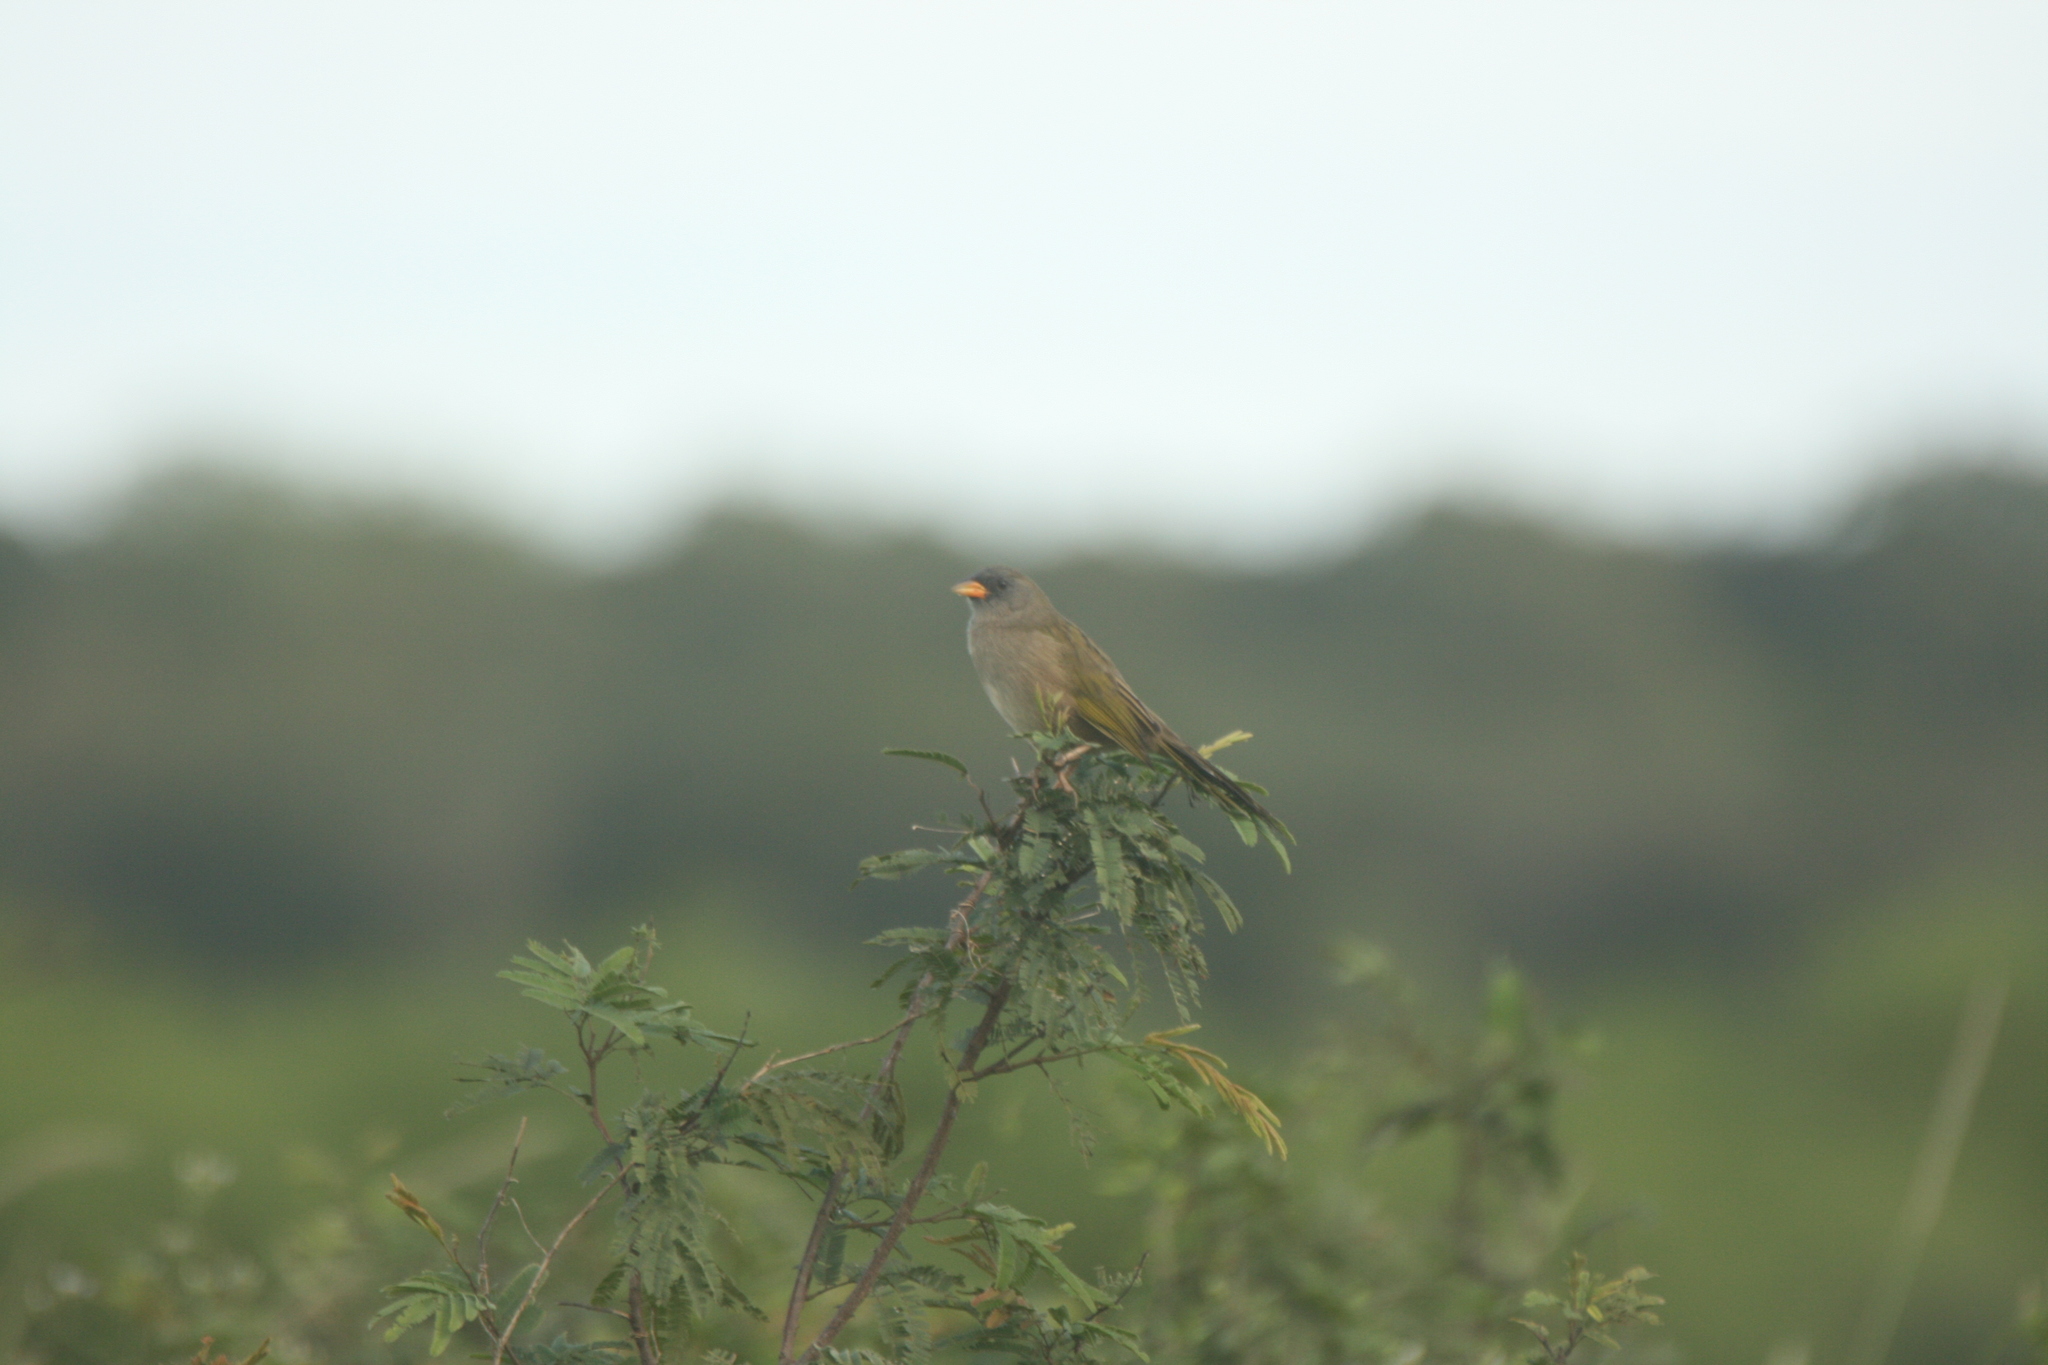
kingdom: Animalia
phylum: Chordata
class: Aves
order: Passeriformes
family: Thraupidae
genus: Embernagra
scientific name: Embernagra platensis
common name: Pampa finch
